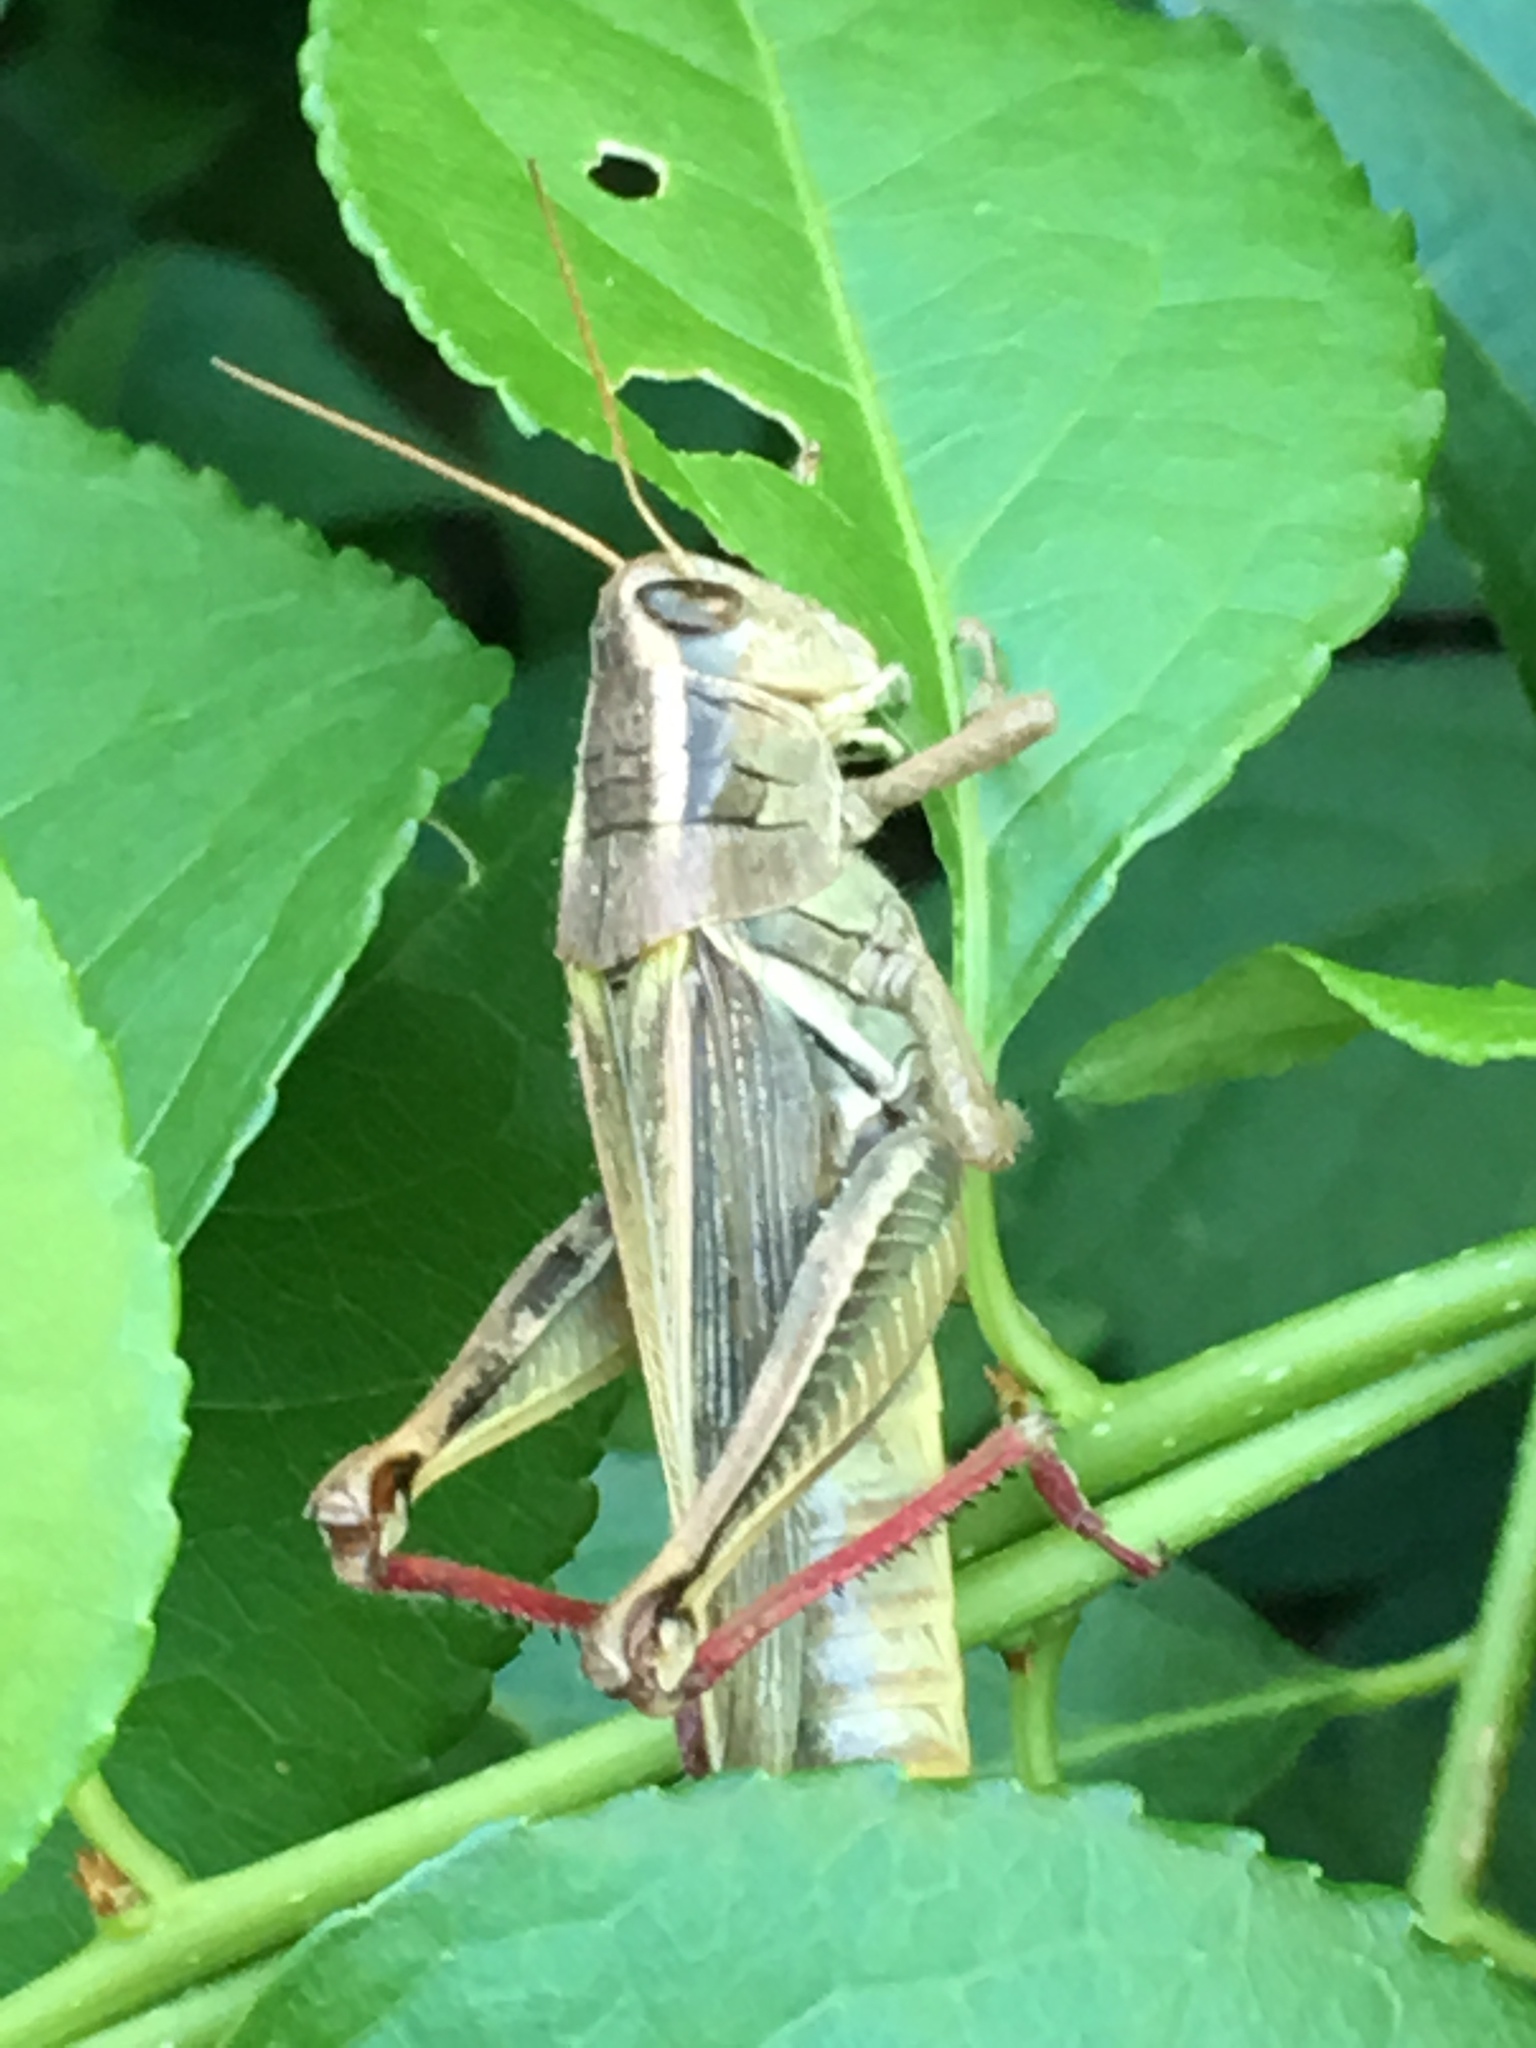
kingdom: Animalia
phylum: Arthropoda
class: Insecta
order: Orthoptera
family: Acrididae
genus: Melanoplus
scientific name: Melanoplus bivittatus
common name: Two-striped grasshopper
